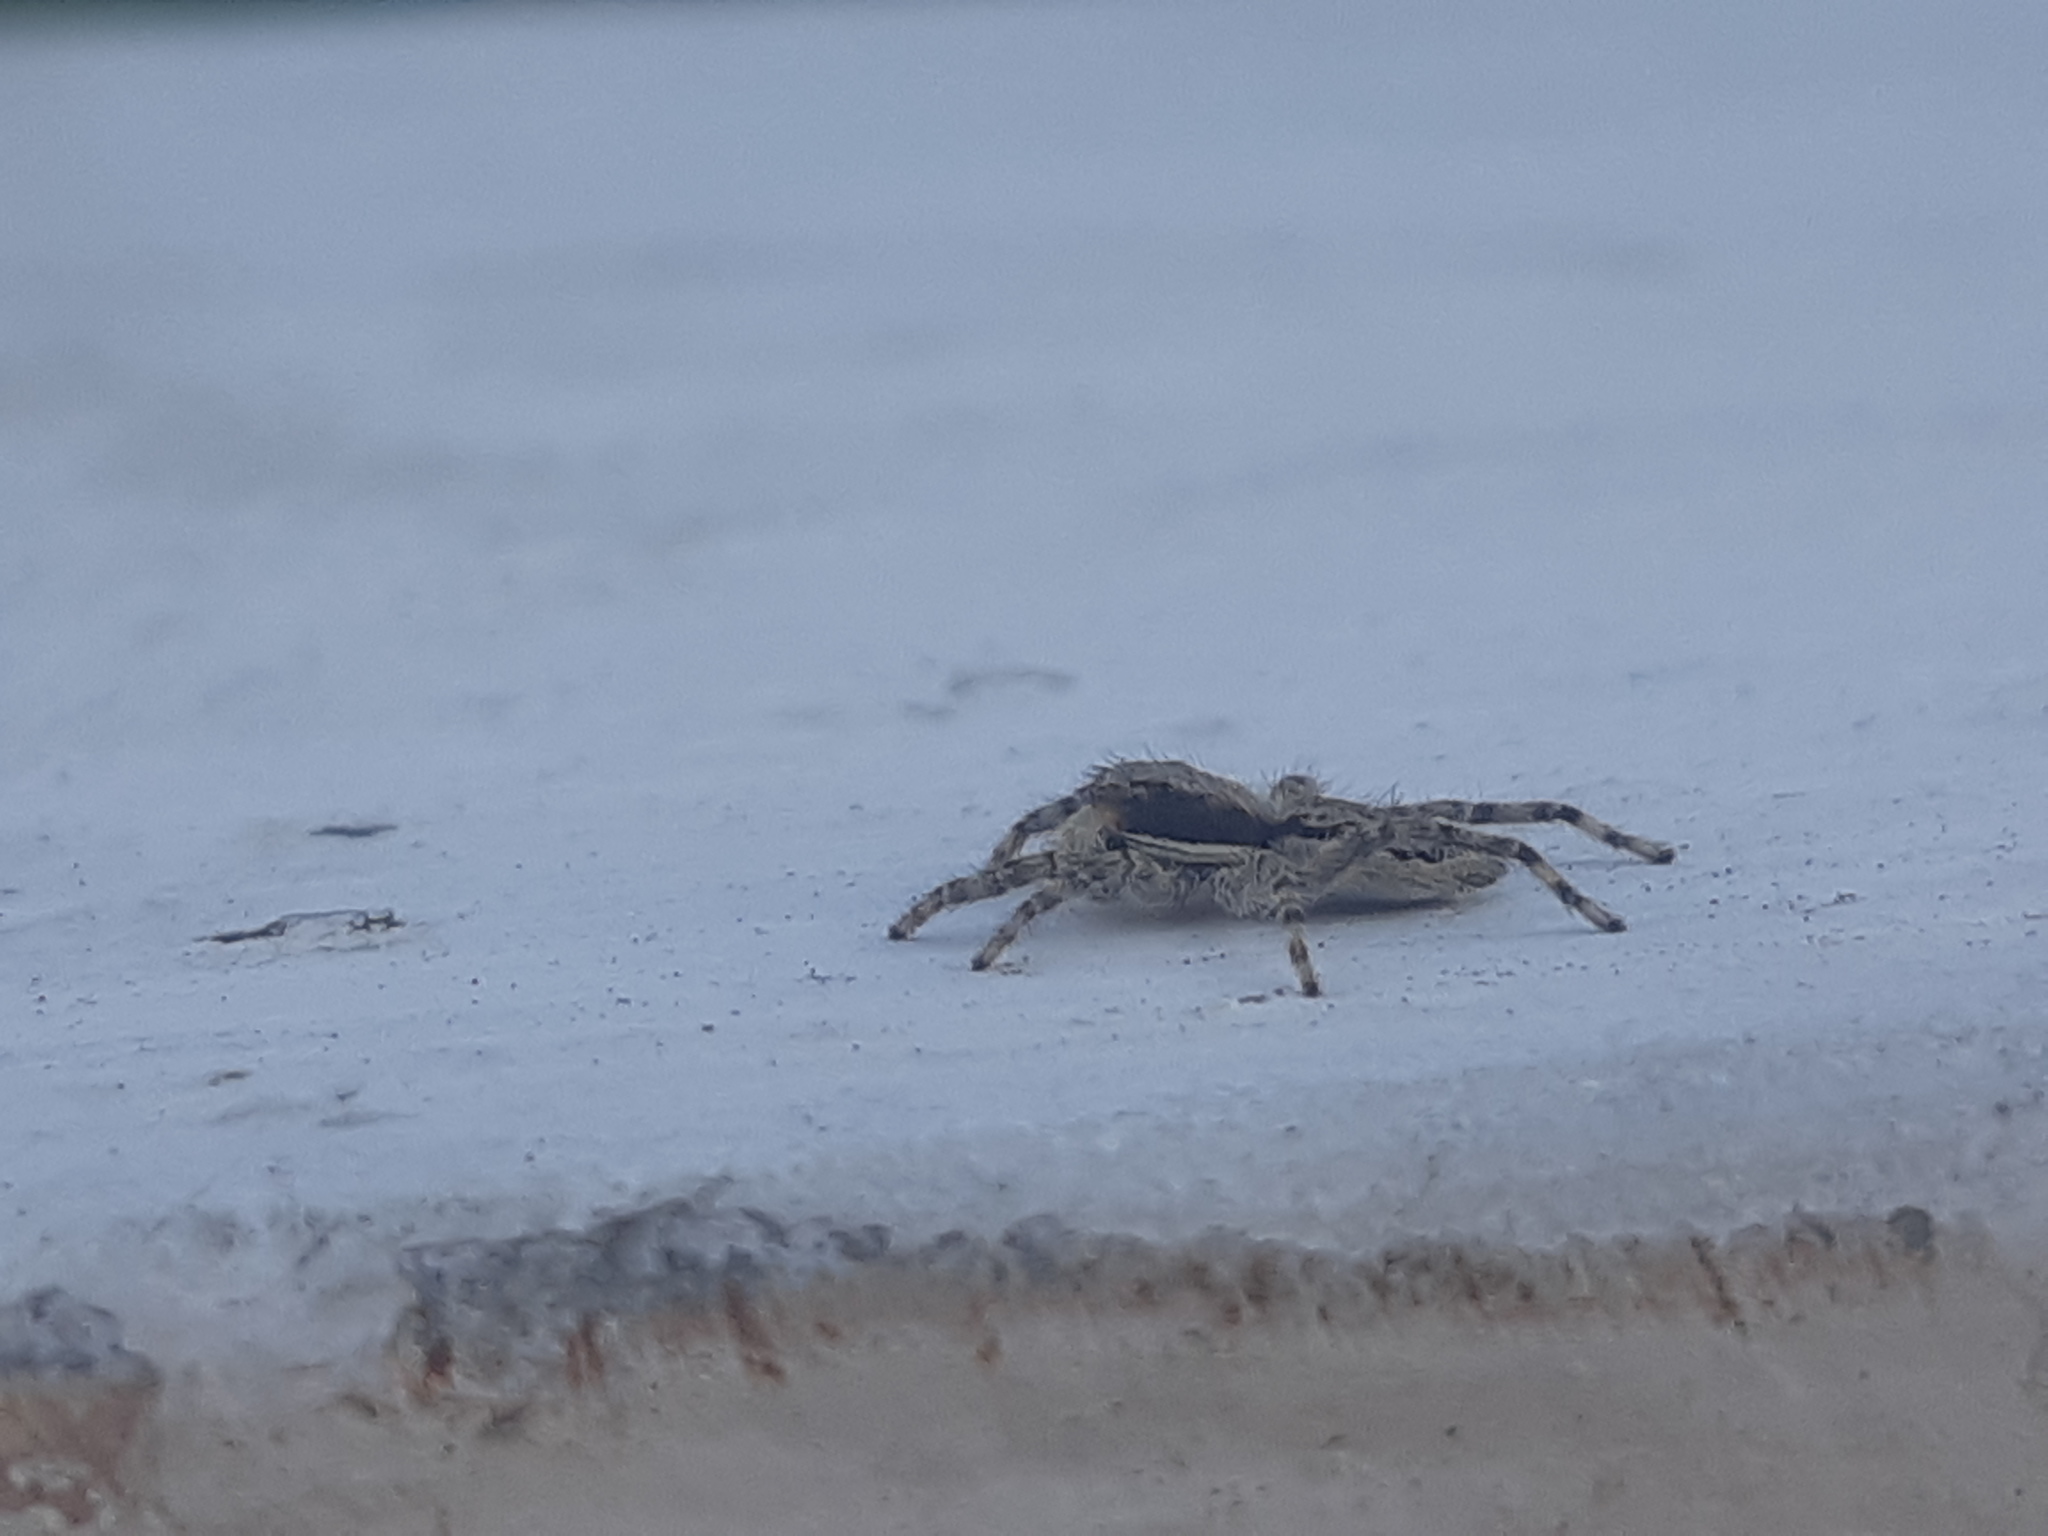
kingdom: Animalia
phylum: Arthropoda
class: Arachnida
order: Araneae
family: Salticidae
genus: Menemerus
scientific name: Menemerus bivittatus
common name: Gray wall jumper
